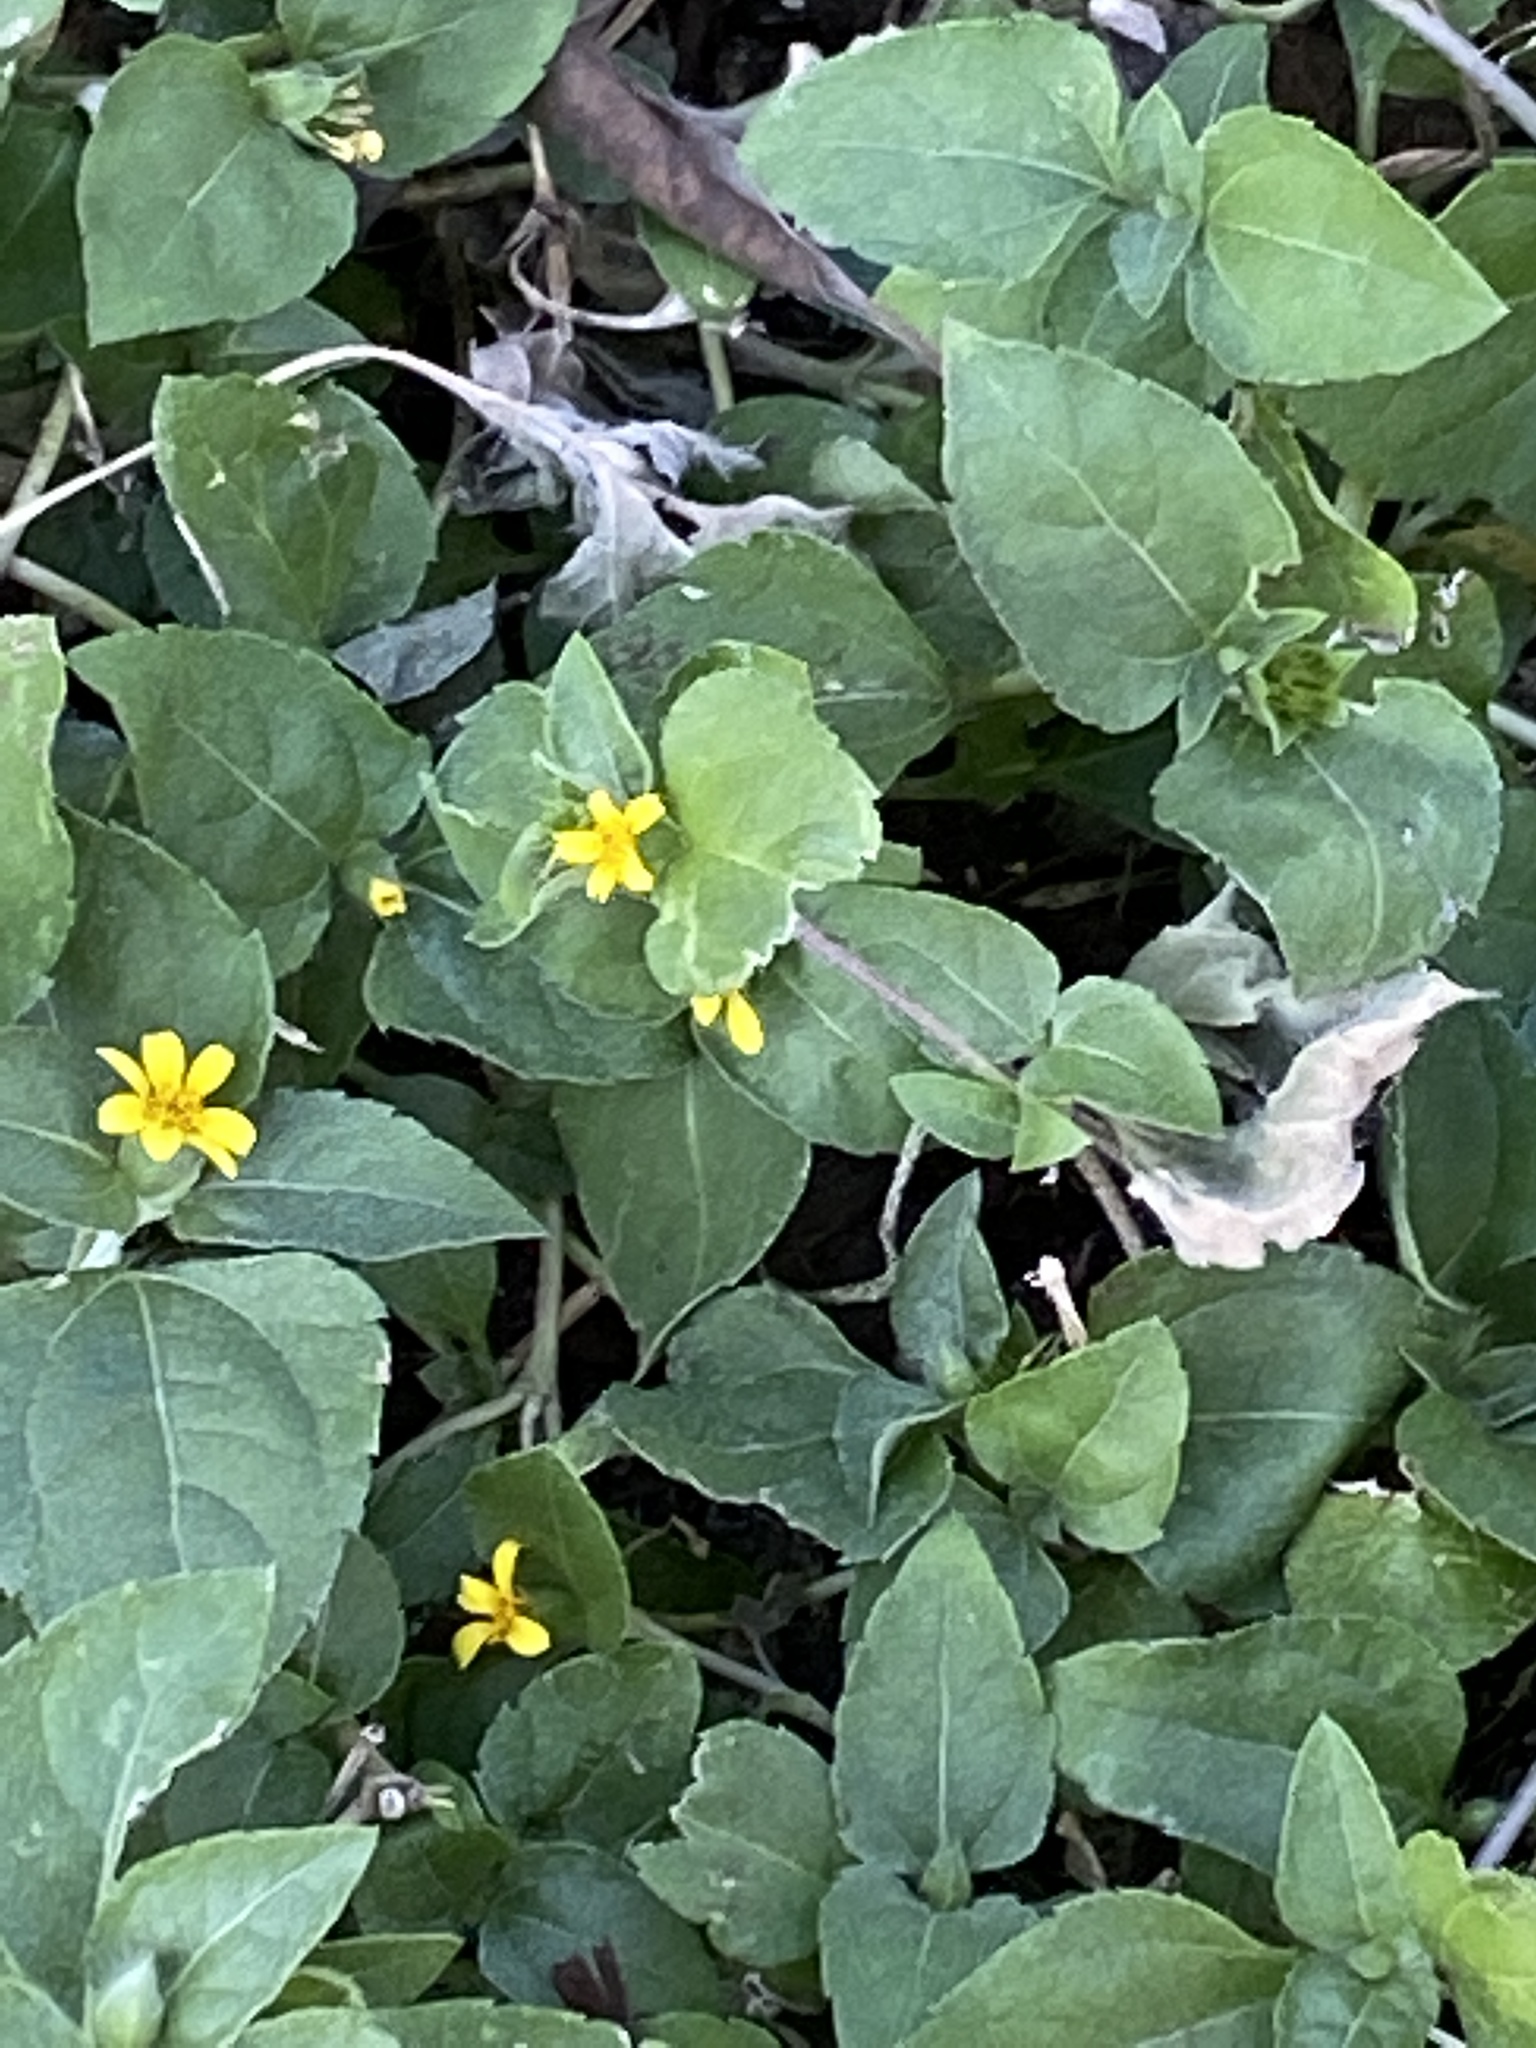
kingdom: Plantae
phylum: Tracheophyta
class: Magnoliopsida
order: Asterales
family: Asteraceae
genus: Calyptocarpus
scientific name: Calyptocarpus vialis
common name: Straggler daisy
